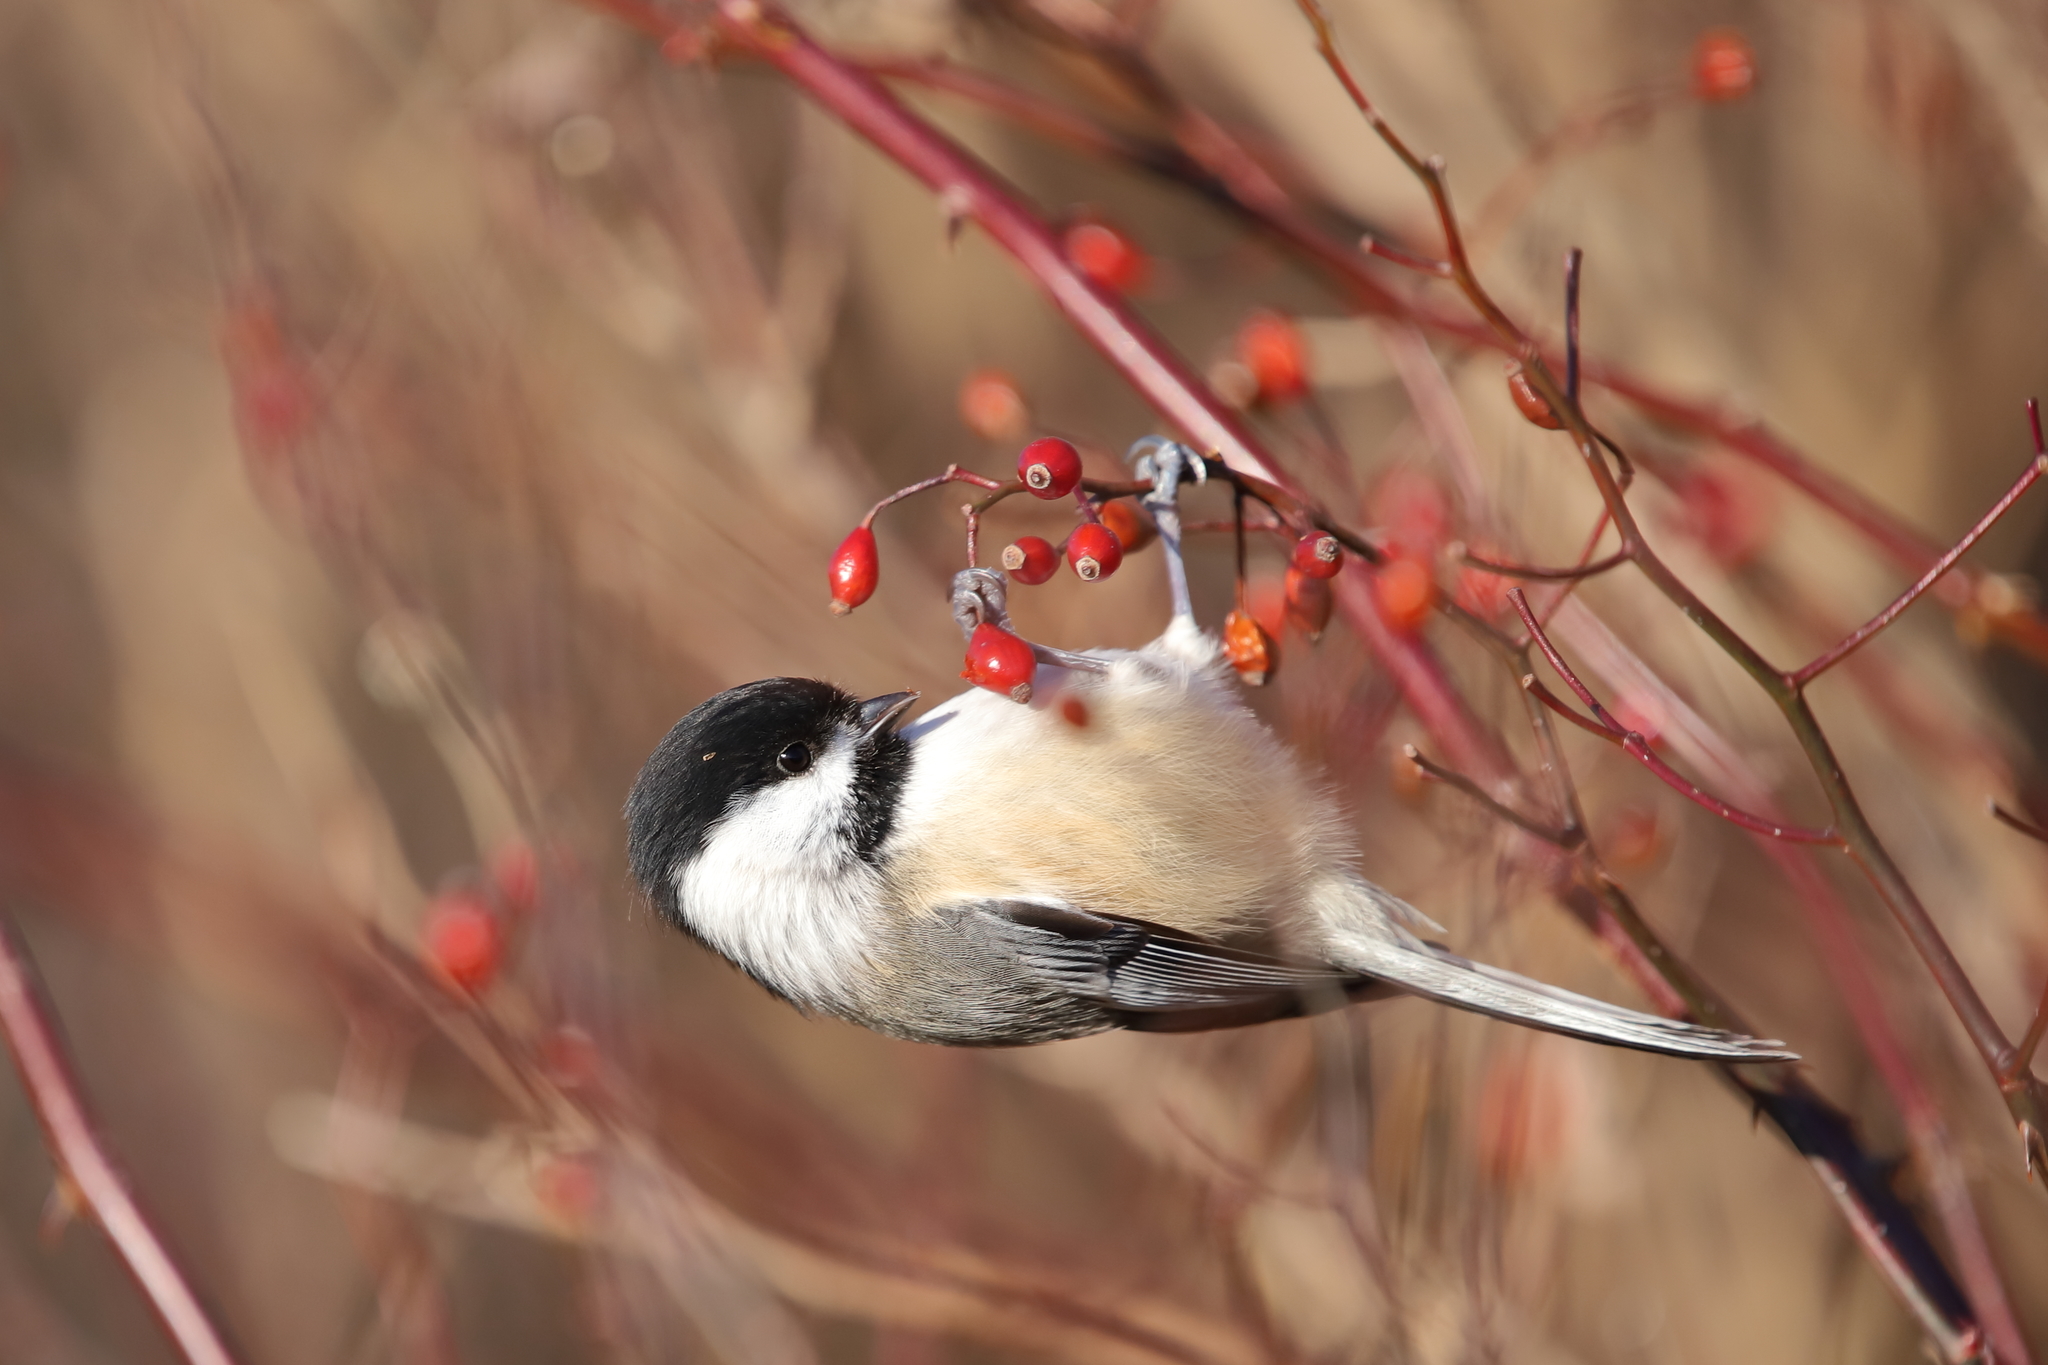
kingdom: Animalia
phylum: Chordata
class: Aves
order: Passeriformes
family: Paridae
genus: Poecile
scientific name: Poecile atricapillus
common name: Black-capped chickadee
